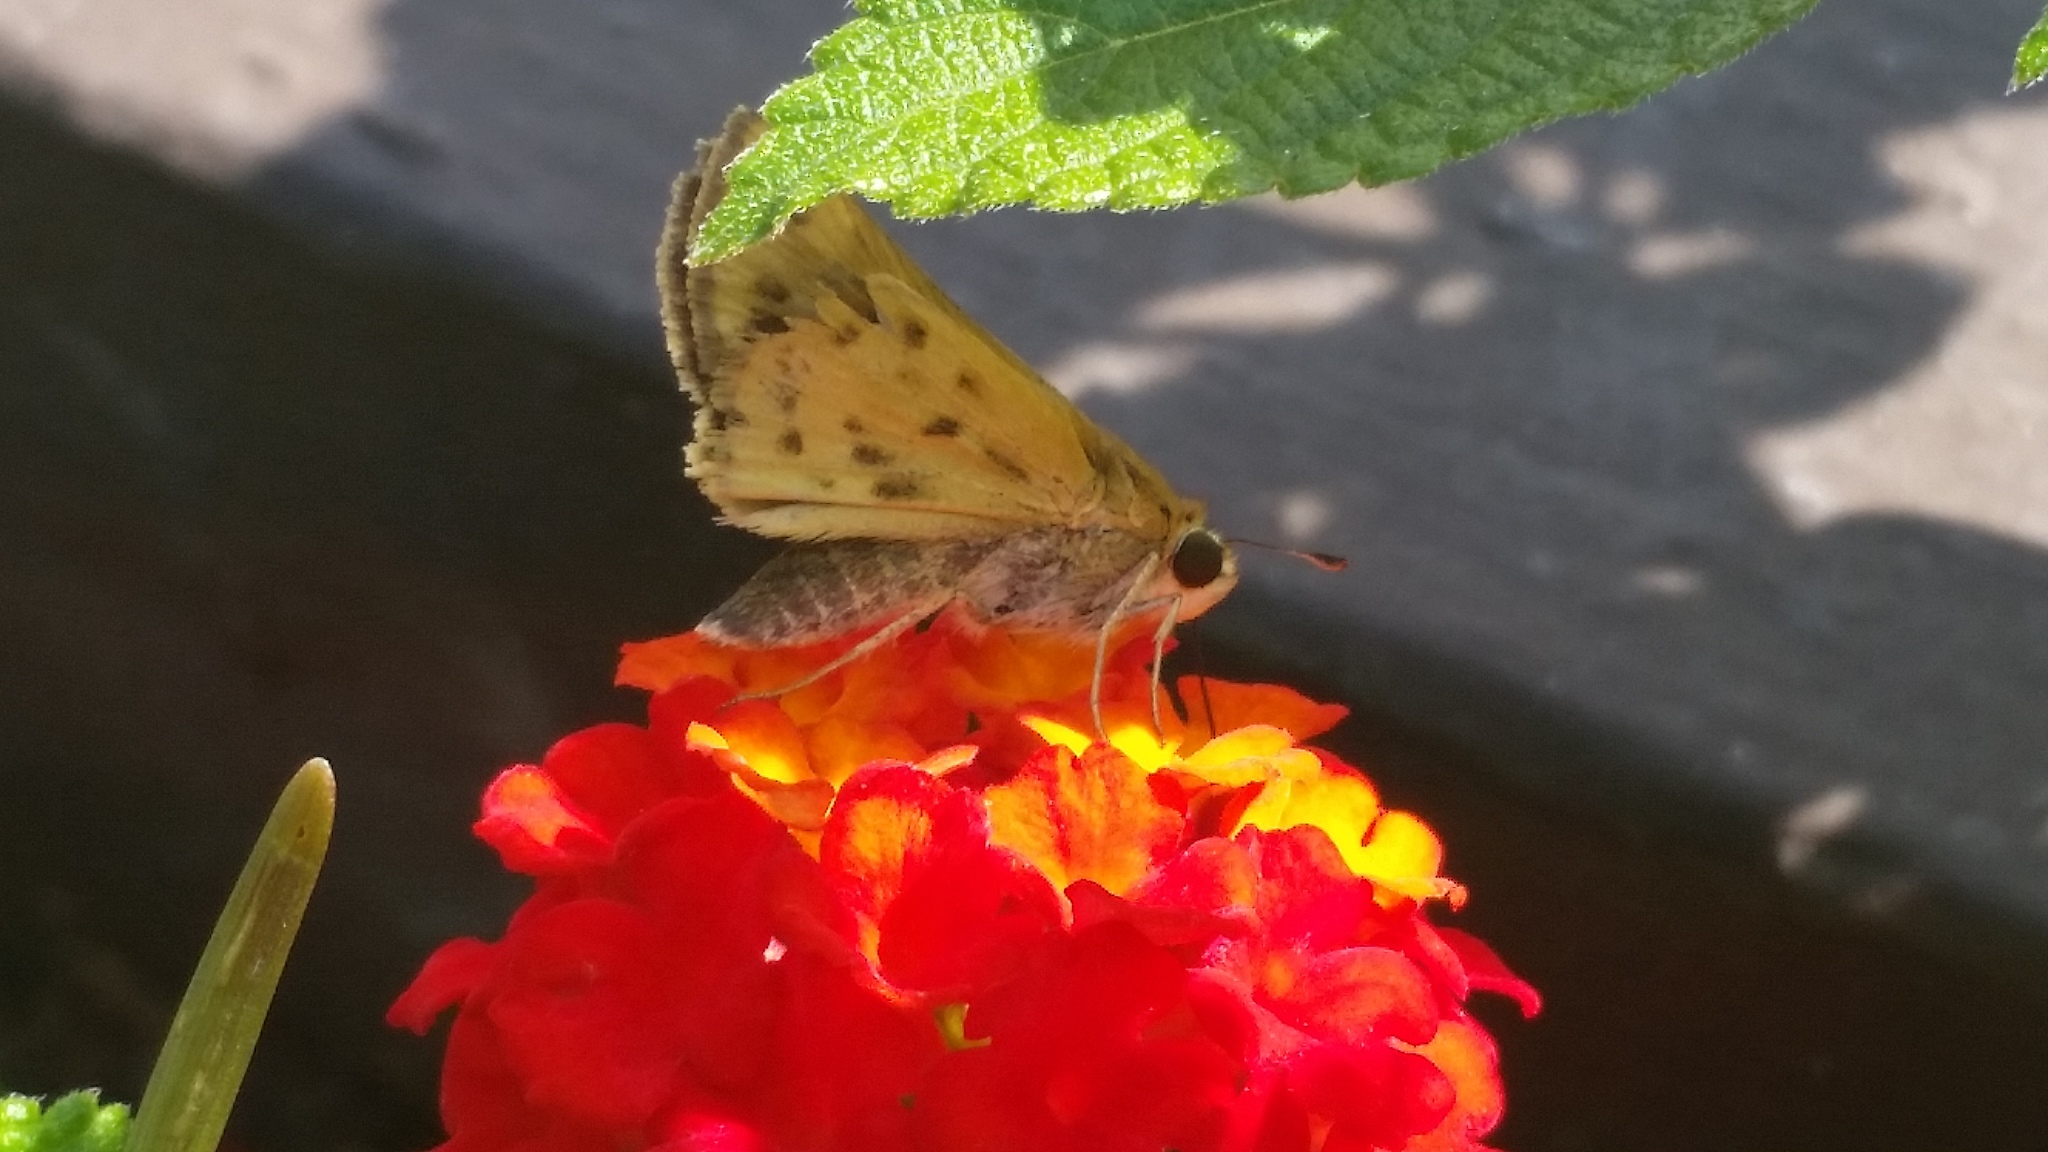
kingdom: Animalia
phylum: Arthropoda
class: Insecta
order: Lepidoptera
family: Hesperiidae
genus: Hylephila
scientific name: Hylephila phyleus
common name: Fiery skipper
